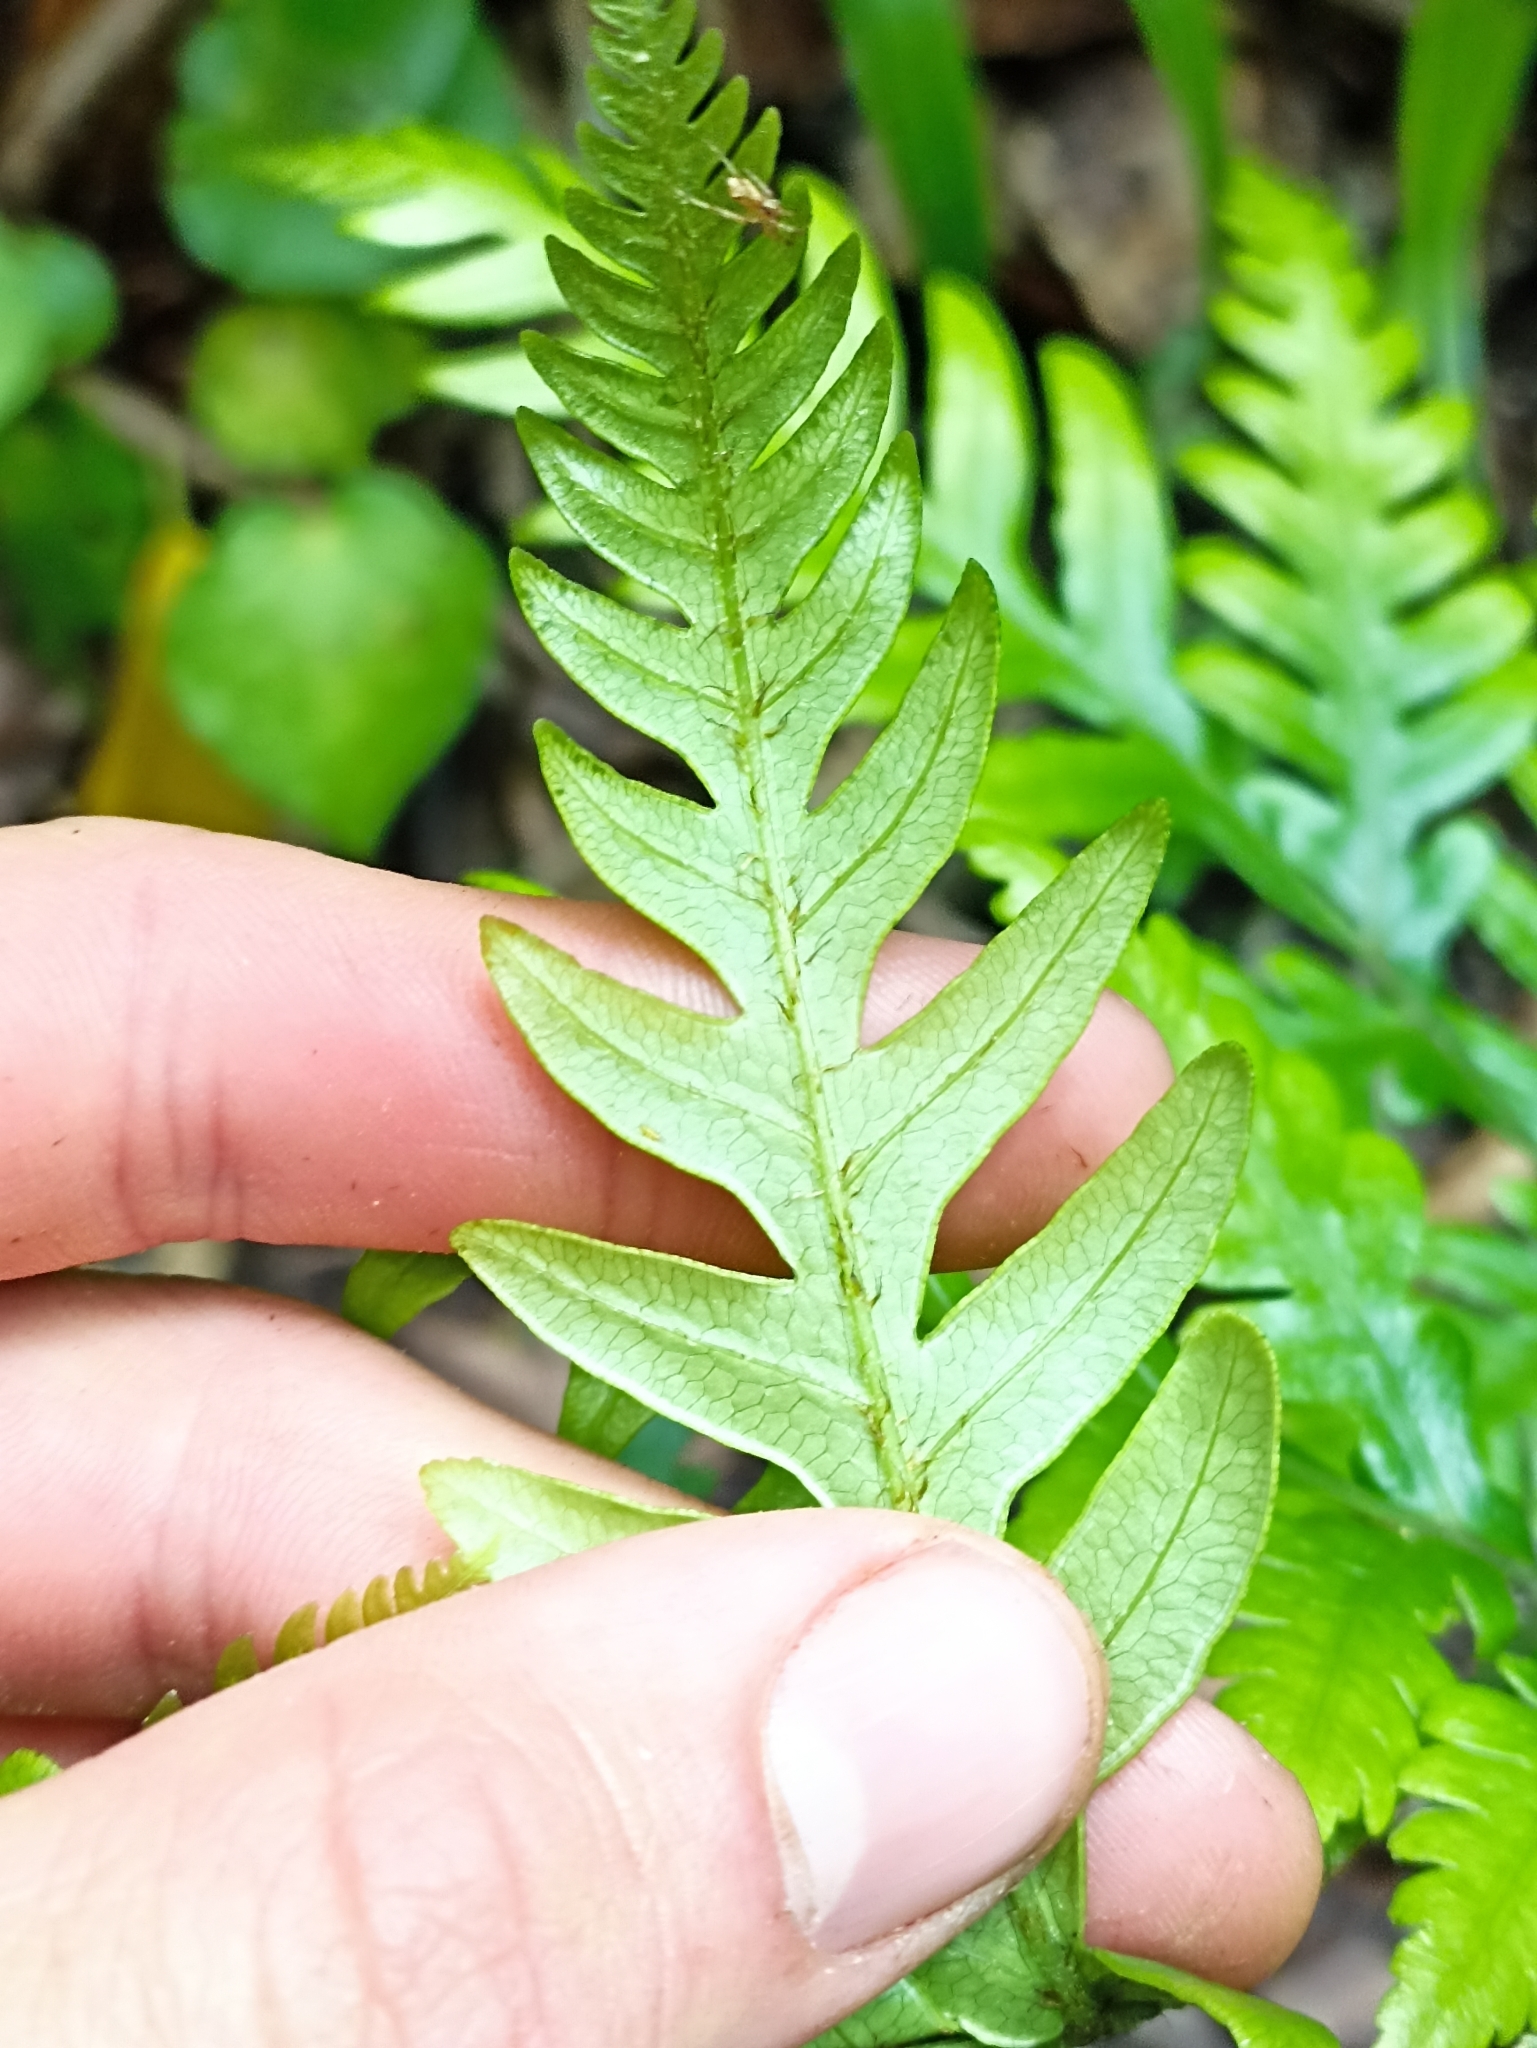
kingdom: Plantae
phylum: Tracheophyta
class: Polypodiopsida
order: Polypodiales
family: Pteridaceae
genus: Pteris
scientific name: Pteris carsei
